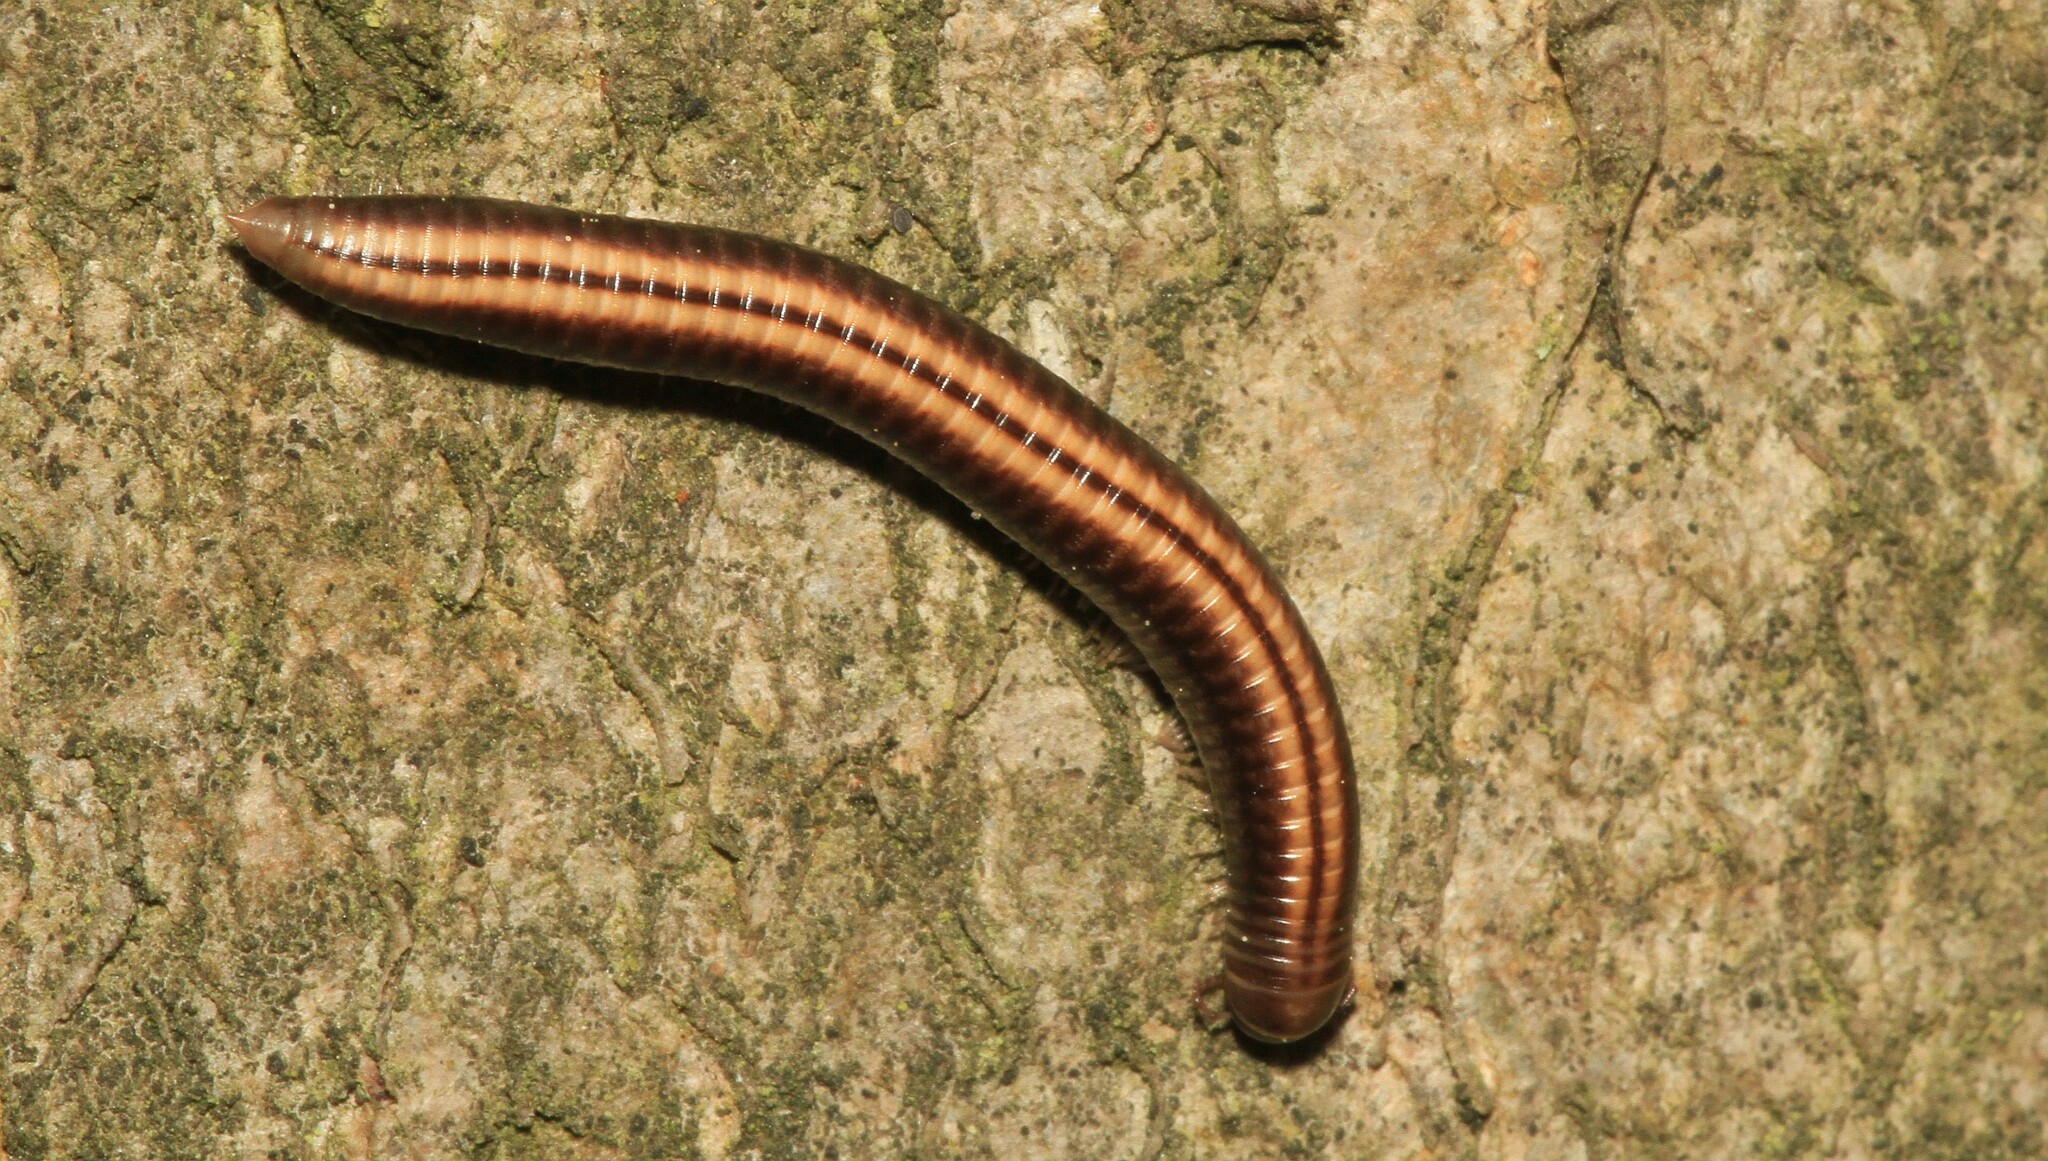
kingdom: Animalia
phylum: Arthropoda
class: Diplopoda
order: Julida
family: Julidae
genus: Ommatoiulus
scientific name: Ommatoiulus sabulosus
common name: Striped millipede
